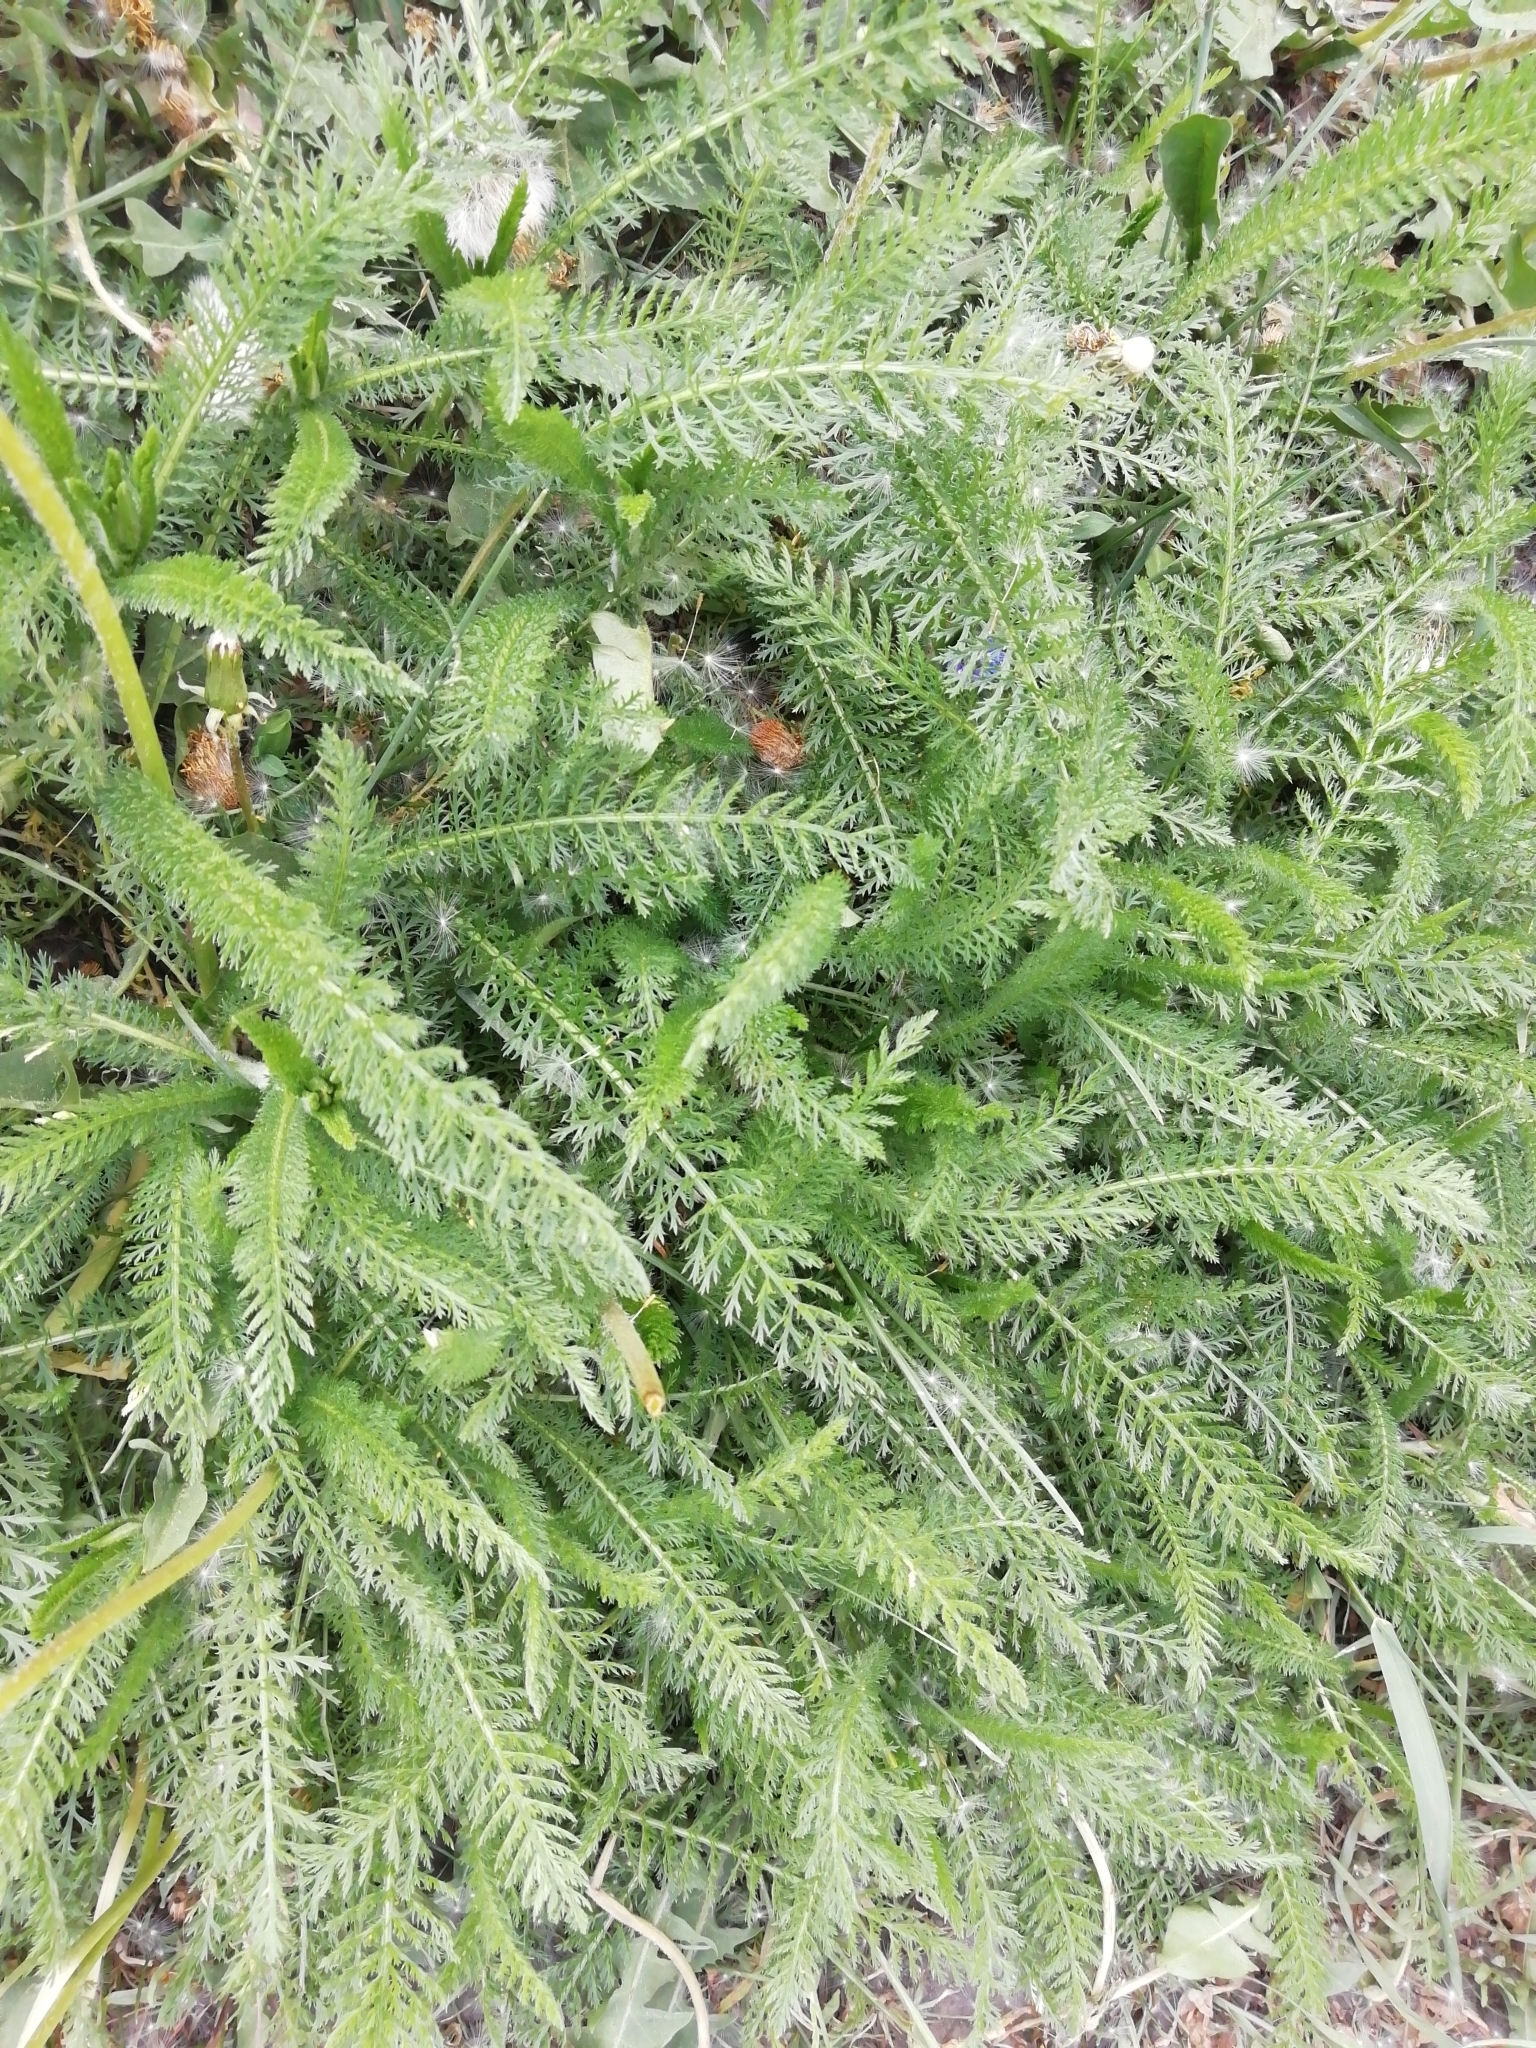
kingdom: Plantae
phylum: Tracheophyta
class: Magnoliopsida
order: Asterales
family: Asteraceae
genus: Achillea
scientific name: Achillea millefolium
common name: Yarrow
